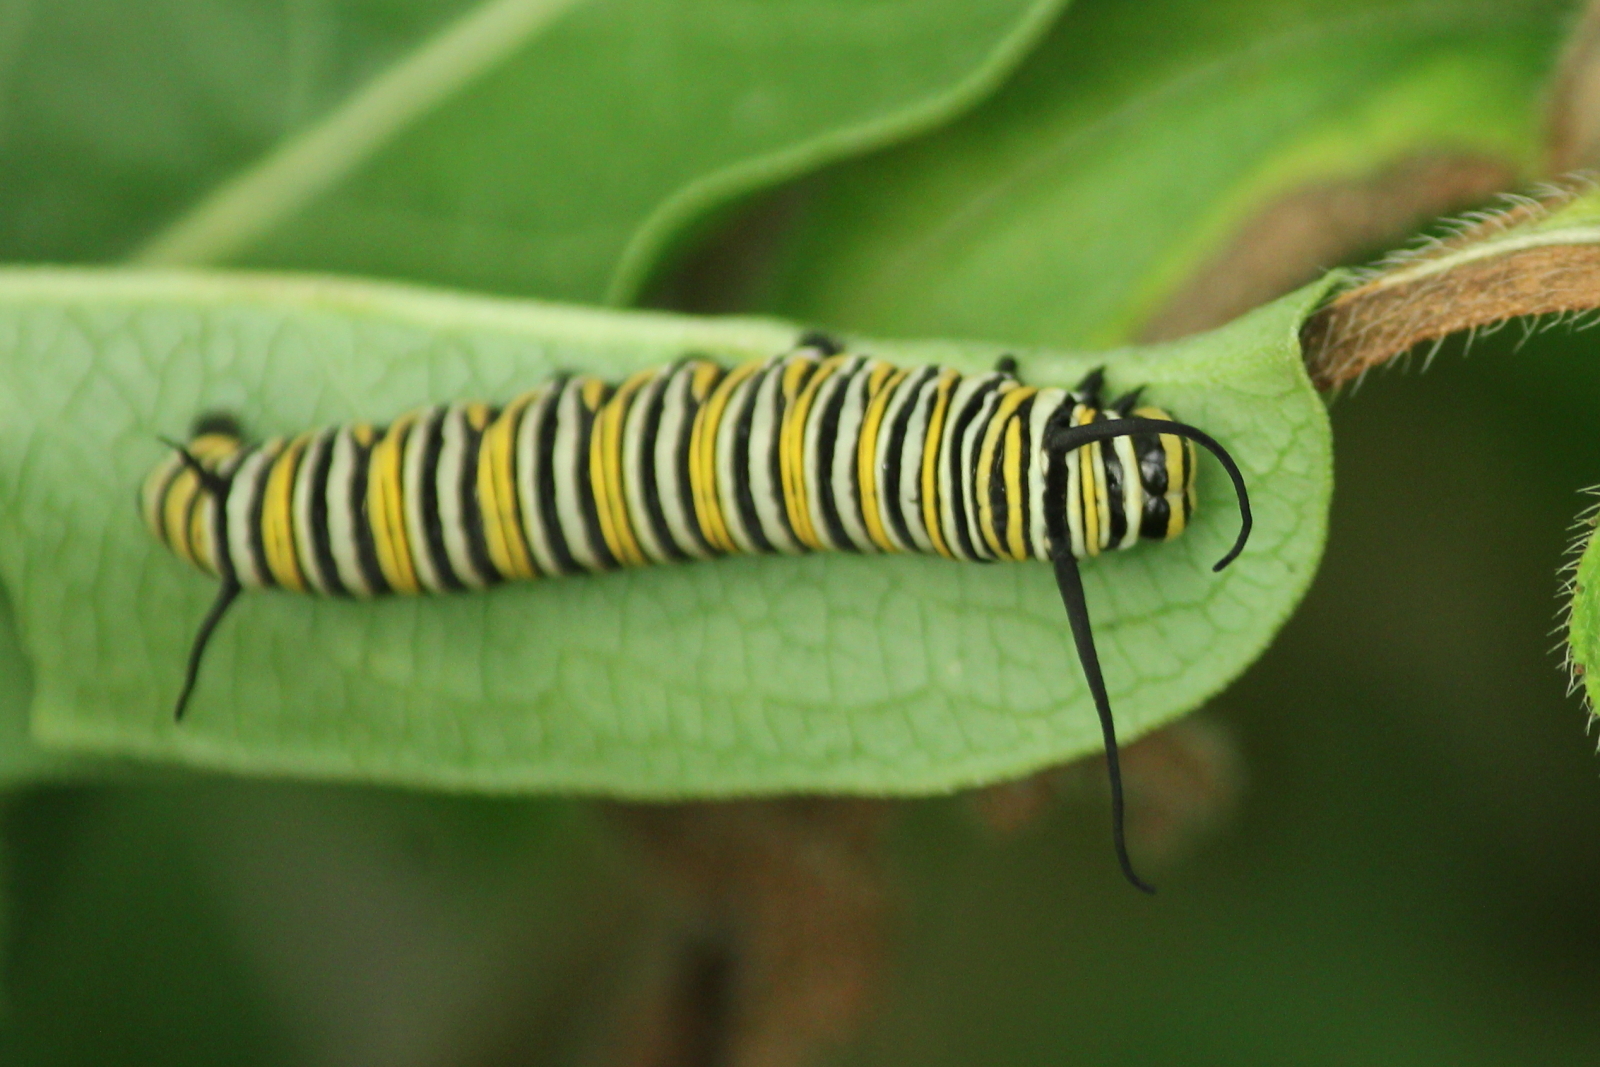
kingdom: Animalia
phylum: Arthropoda
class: Insecta
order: Lepidoptera
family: Nymphalidae
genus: Danaus
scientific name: Danaus plexippus
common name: Monarch
